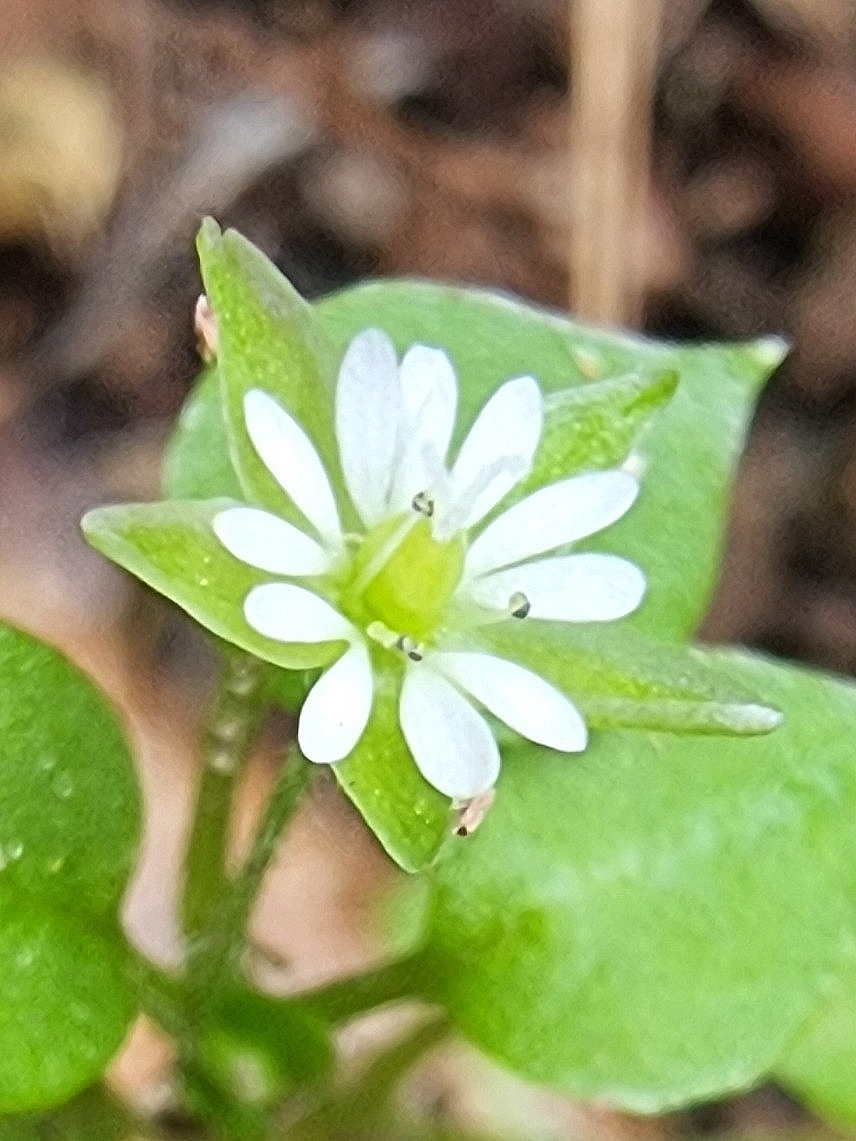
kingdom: Plantae
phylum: Tracheophyta
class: Magnoliopsida
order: Caryophyllales
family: Caryophyllaceae
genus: Stellaria
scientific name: Stellaria media
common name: Common chickweed
